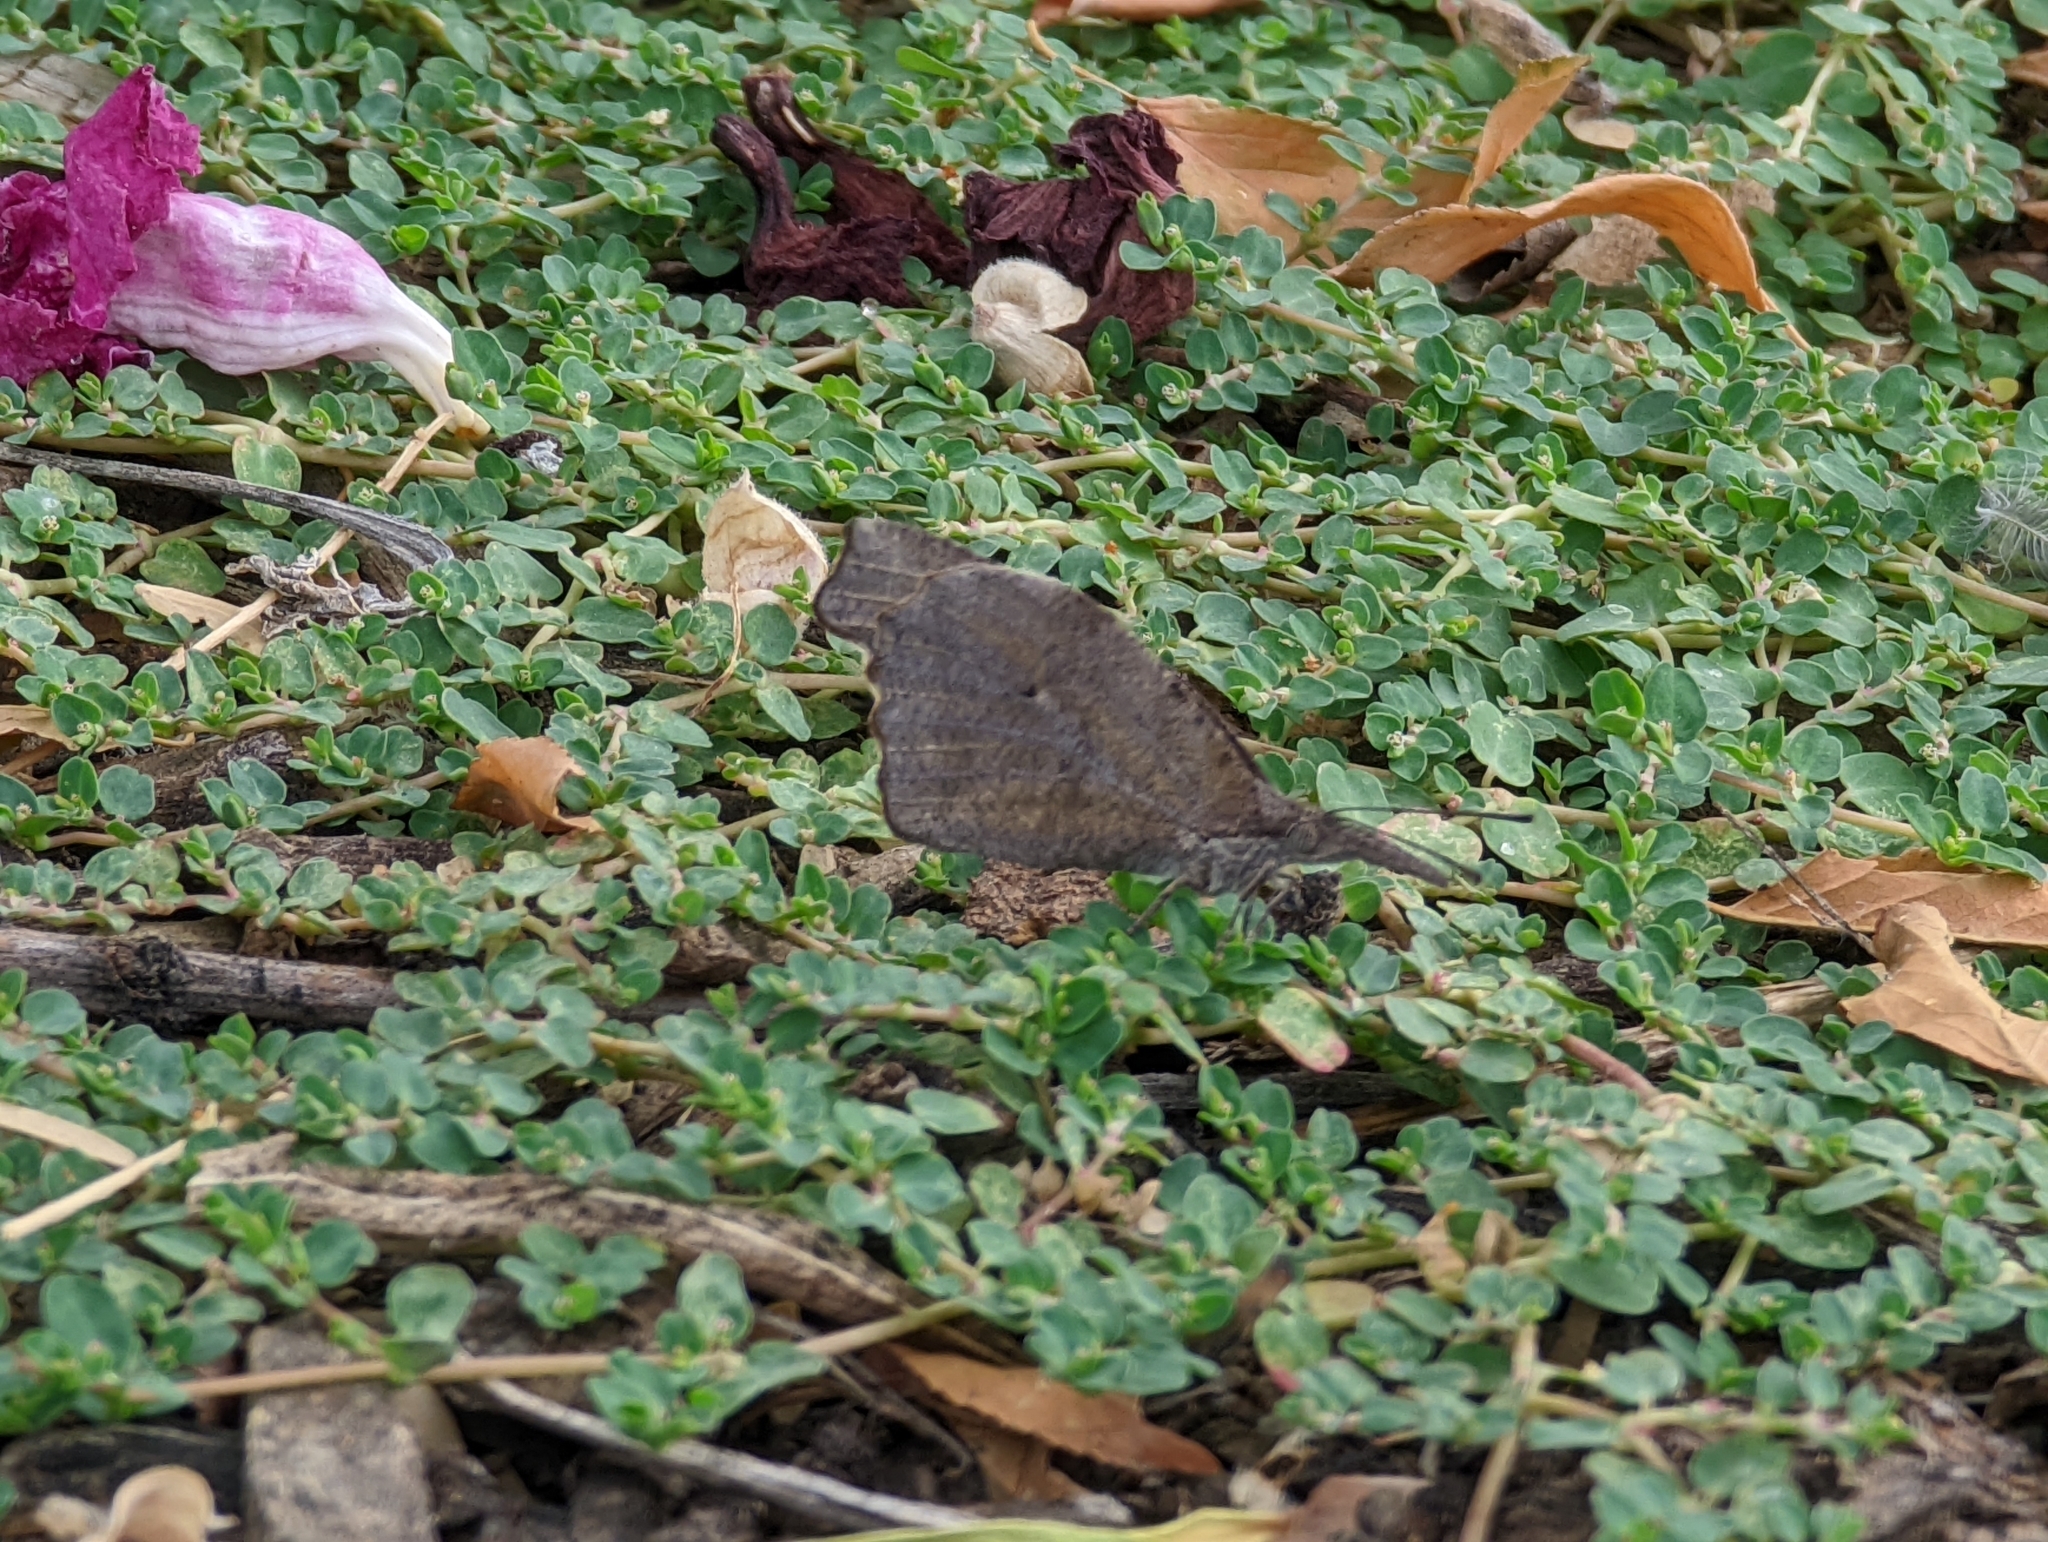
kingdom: Animalia
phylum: Arthropoda
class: Insecta
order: Lepidoptera
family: Nymphalidae
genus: Libytheana
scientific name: Libytheana carinenta
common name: American snout
